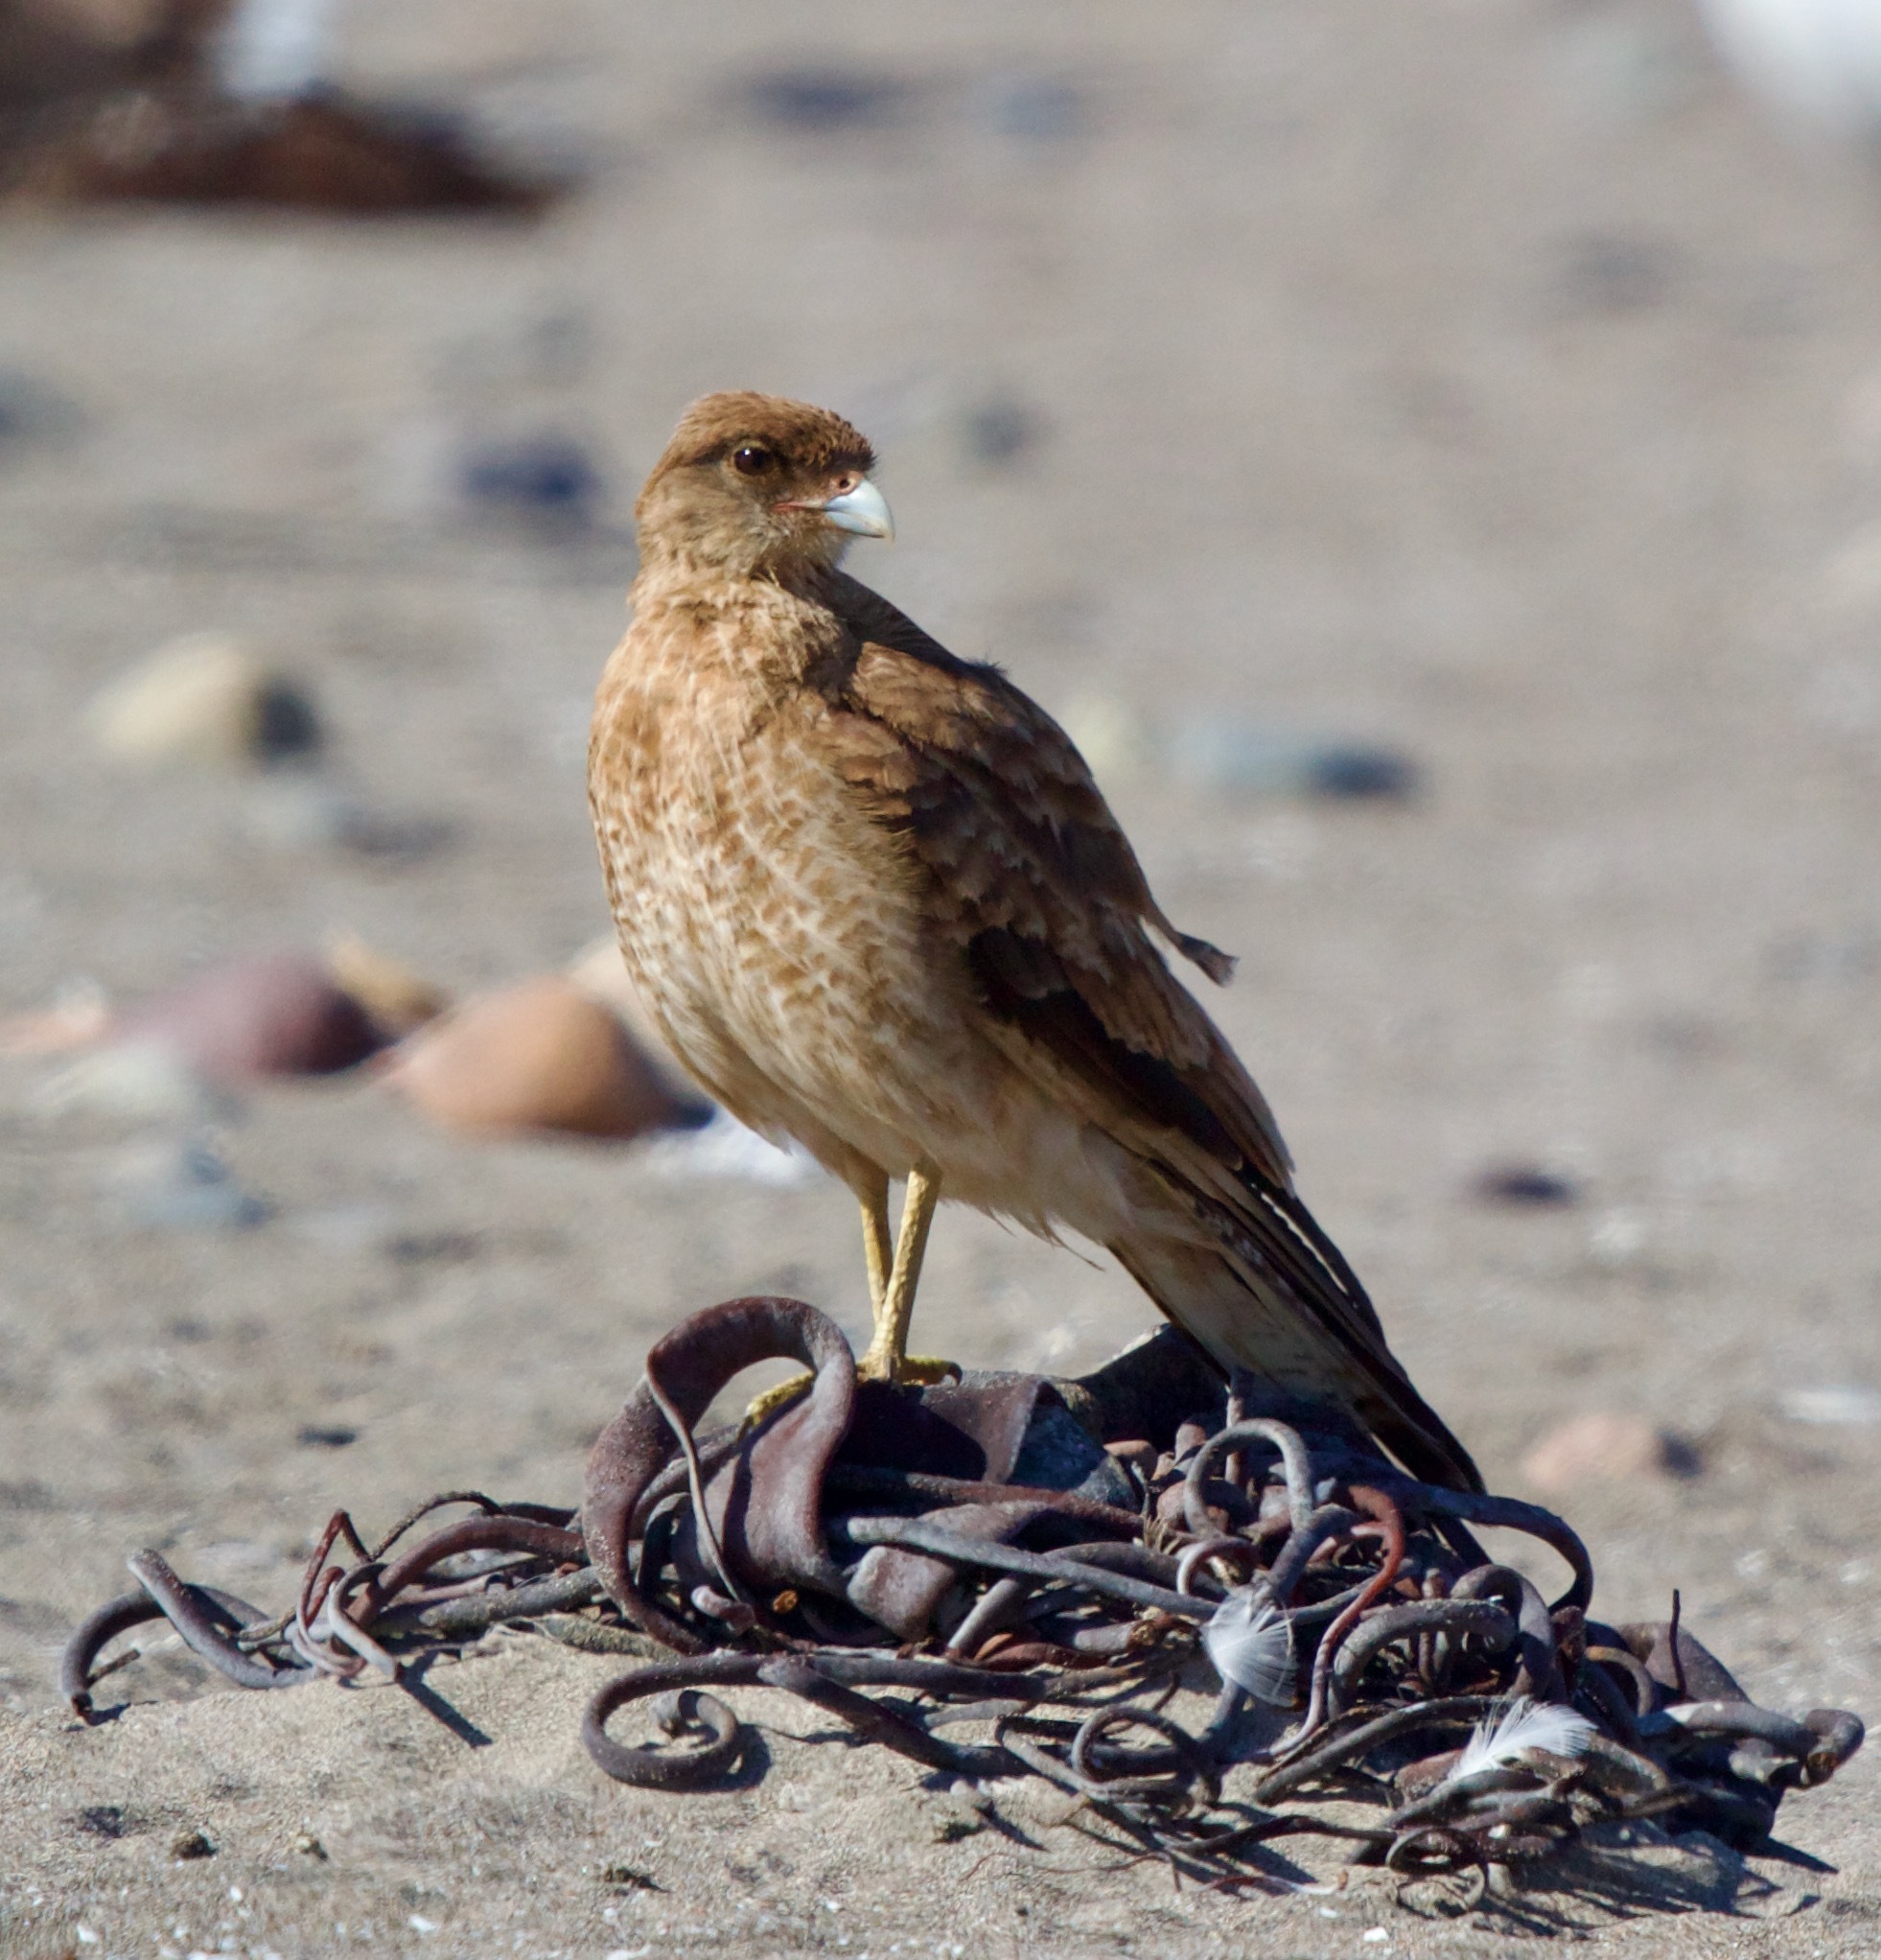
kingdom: Animalia
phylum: Chordata
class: Aves
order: Falconiformes
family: Falconidae
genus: Daptrius
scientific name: Daptrius
